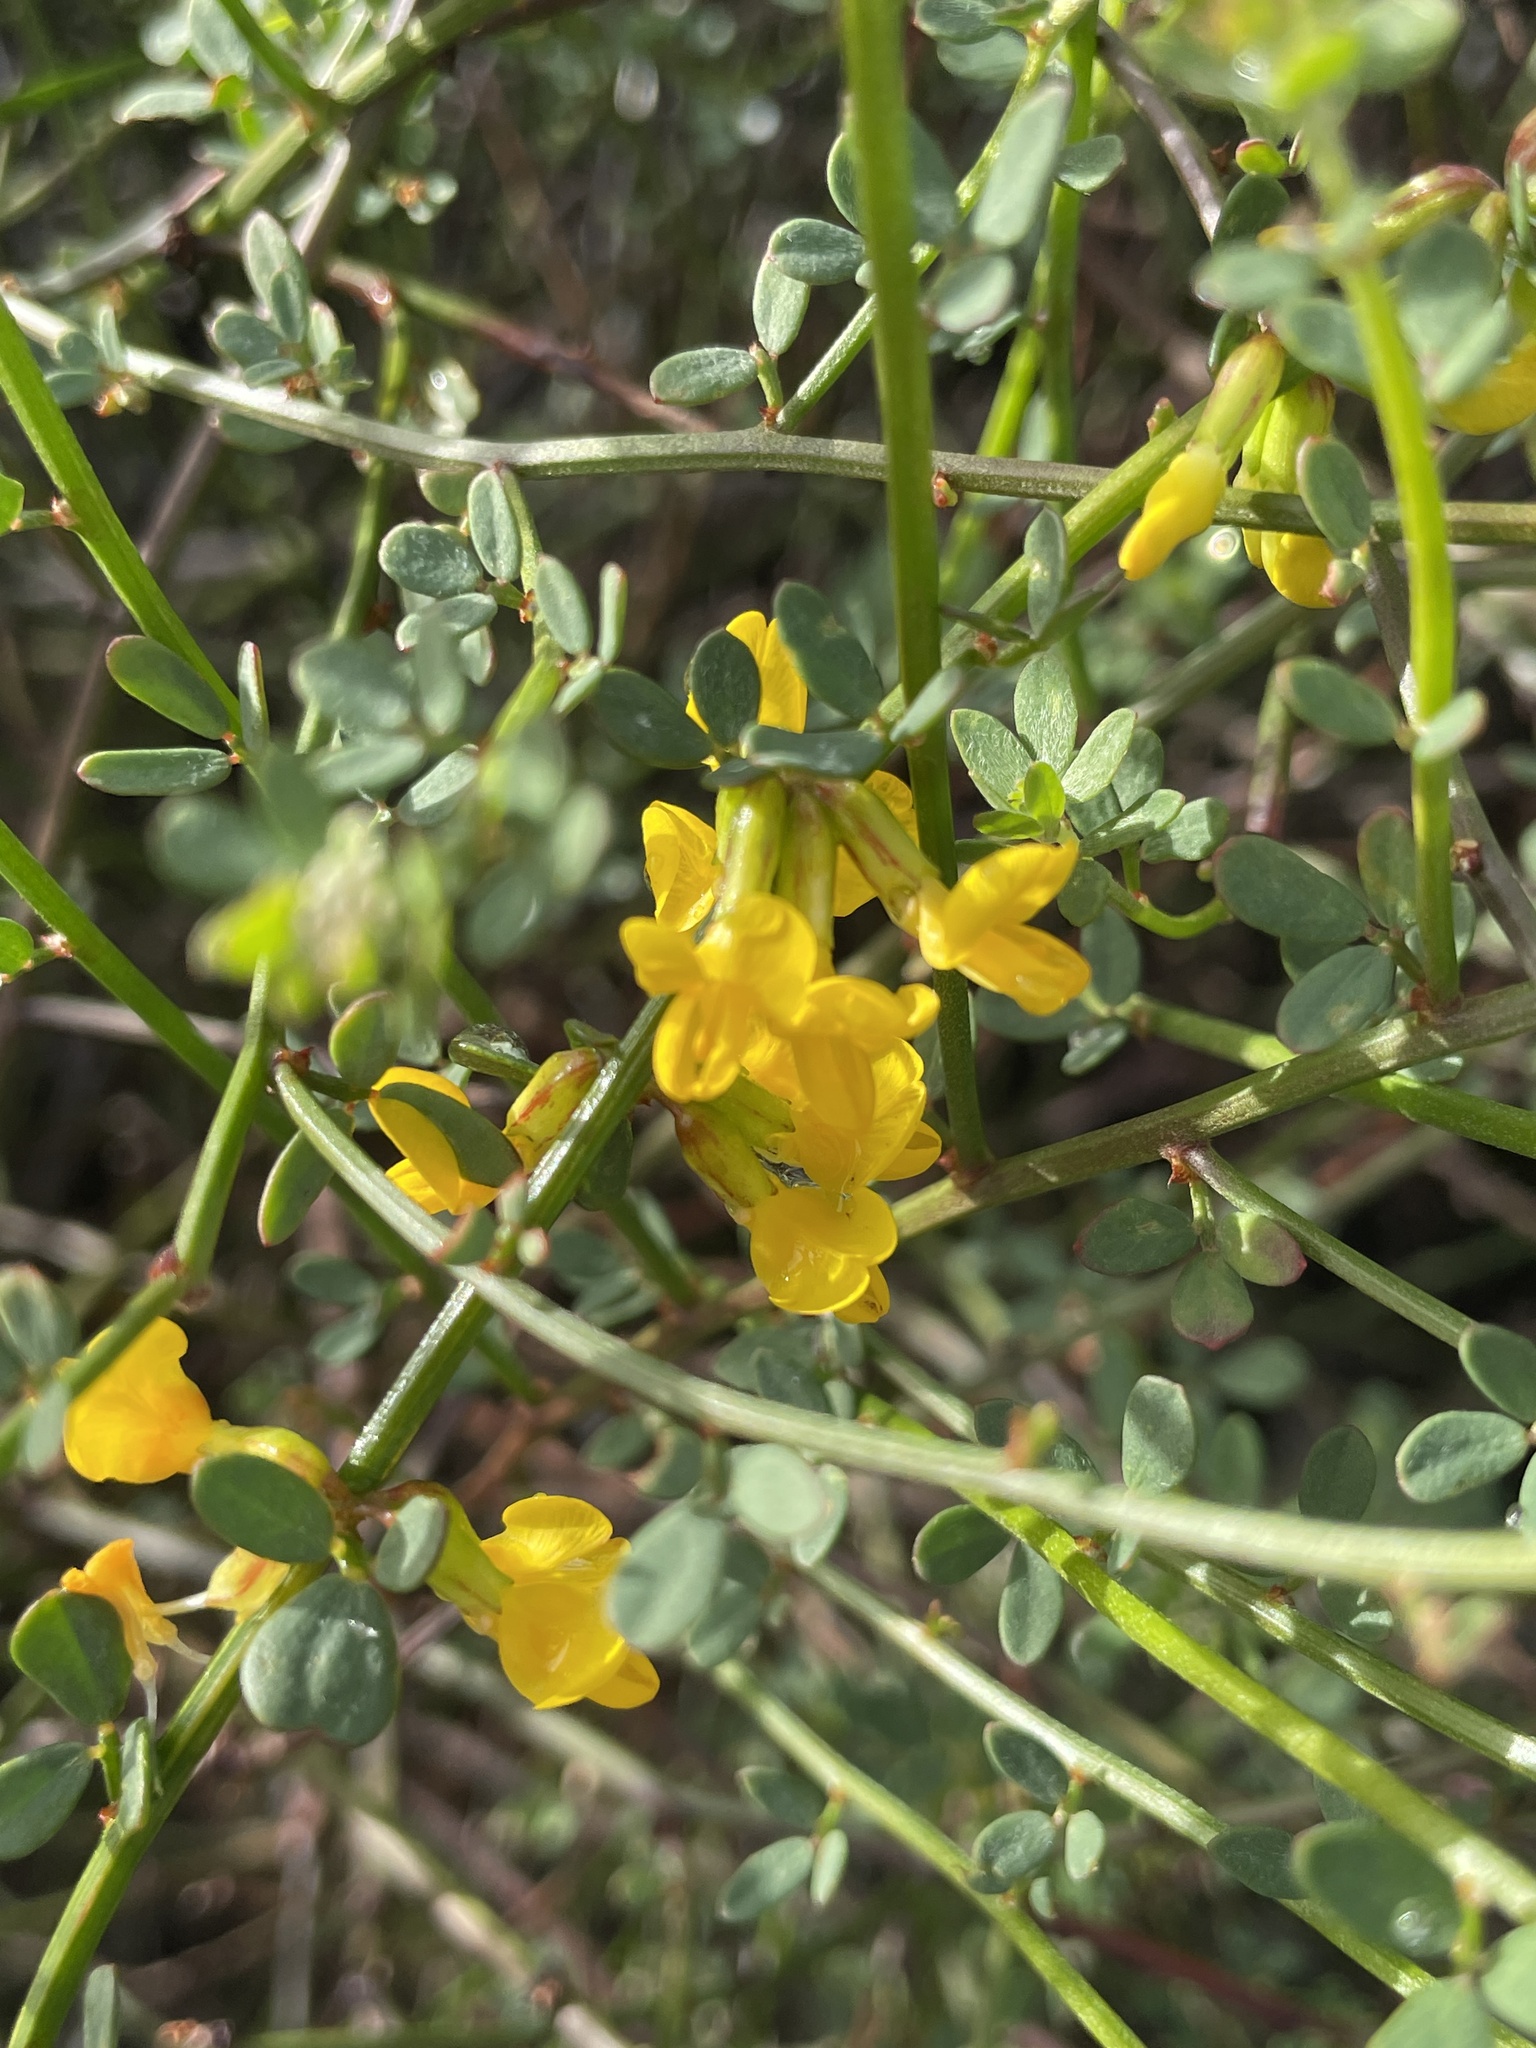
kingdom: Plantae
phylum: Tracheophyta
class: Magnoliopsida
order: Fabales
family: Fabaceae
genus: Acmispon
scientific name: Acmispon glaber
